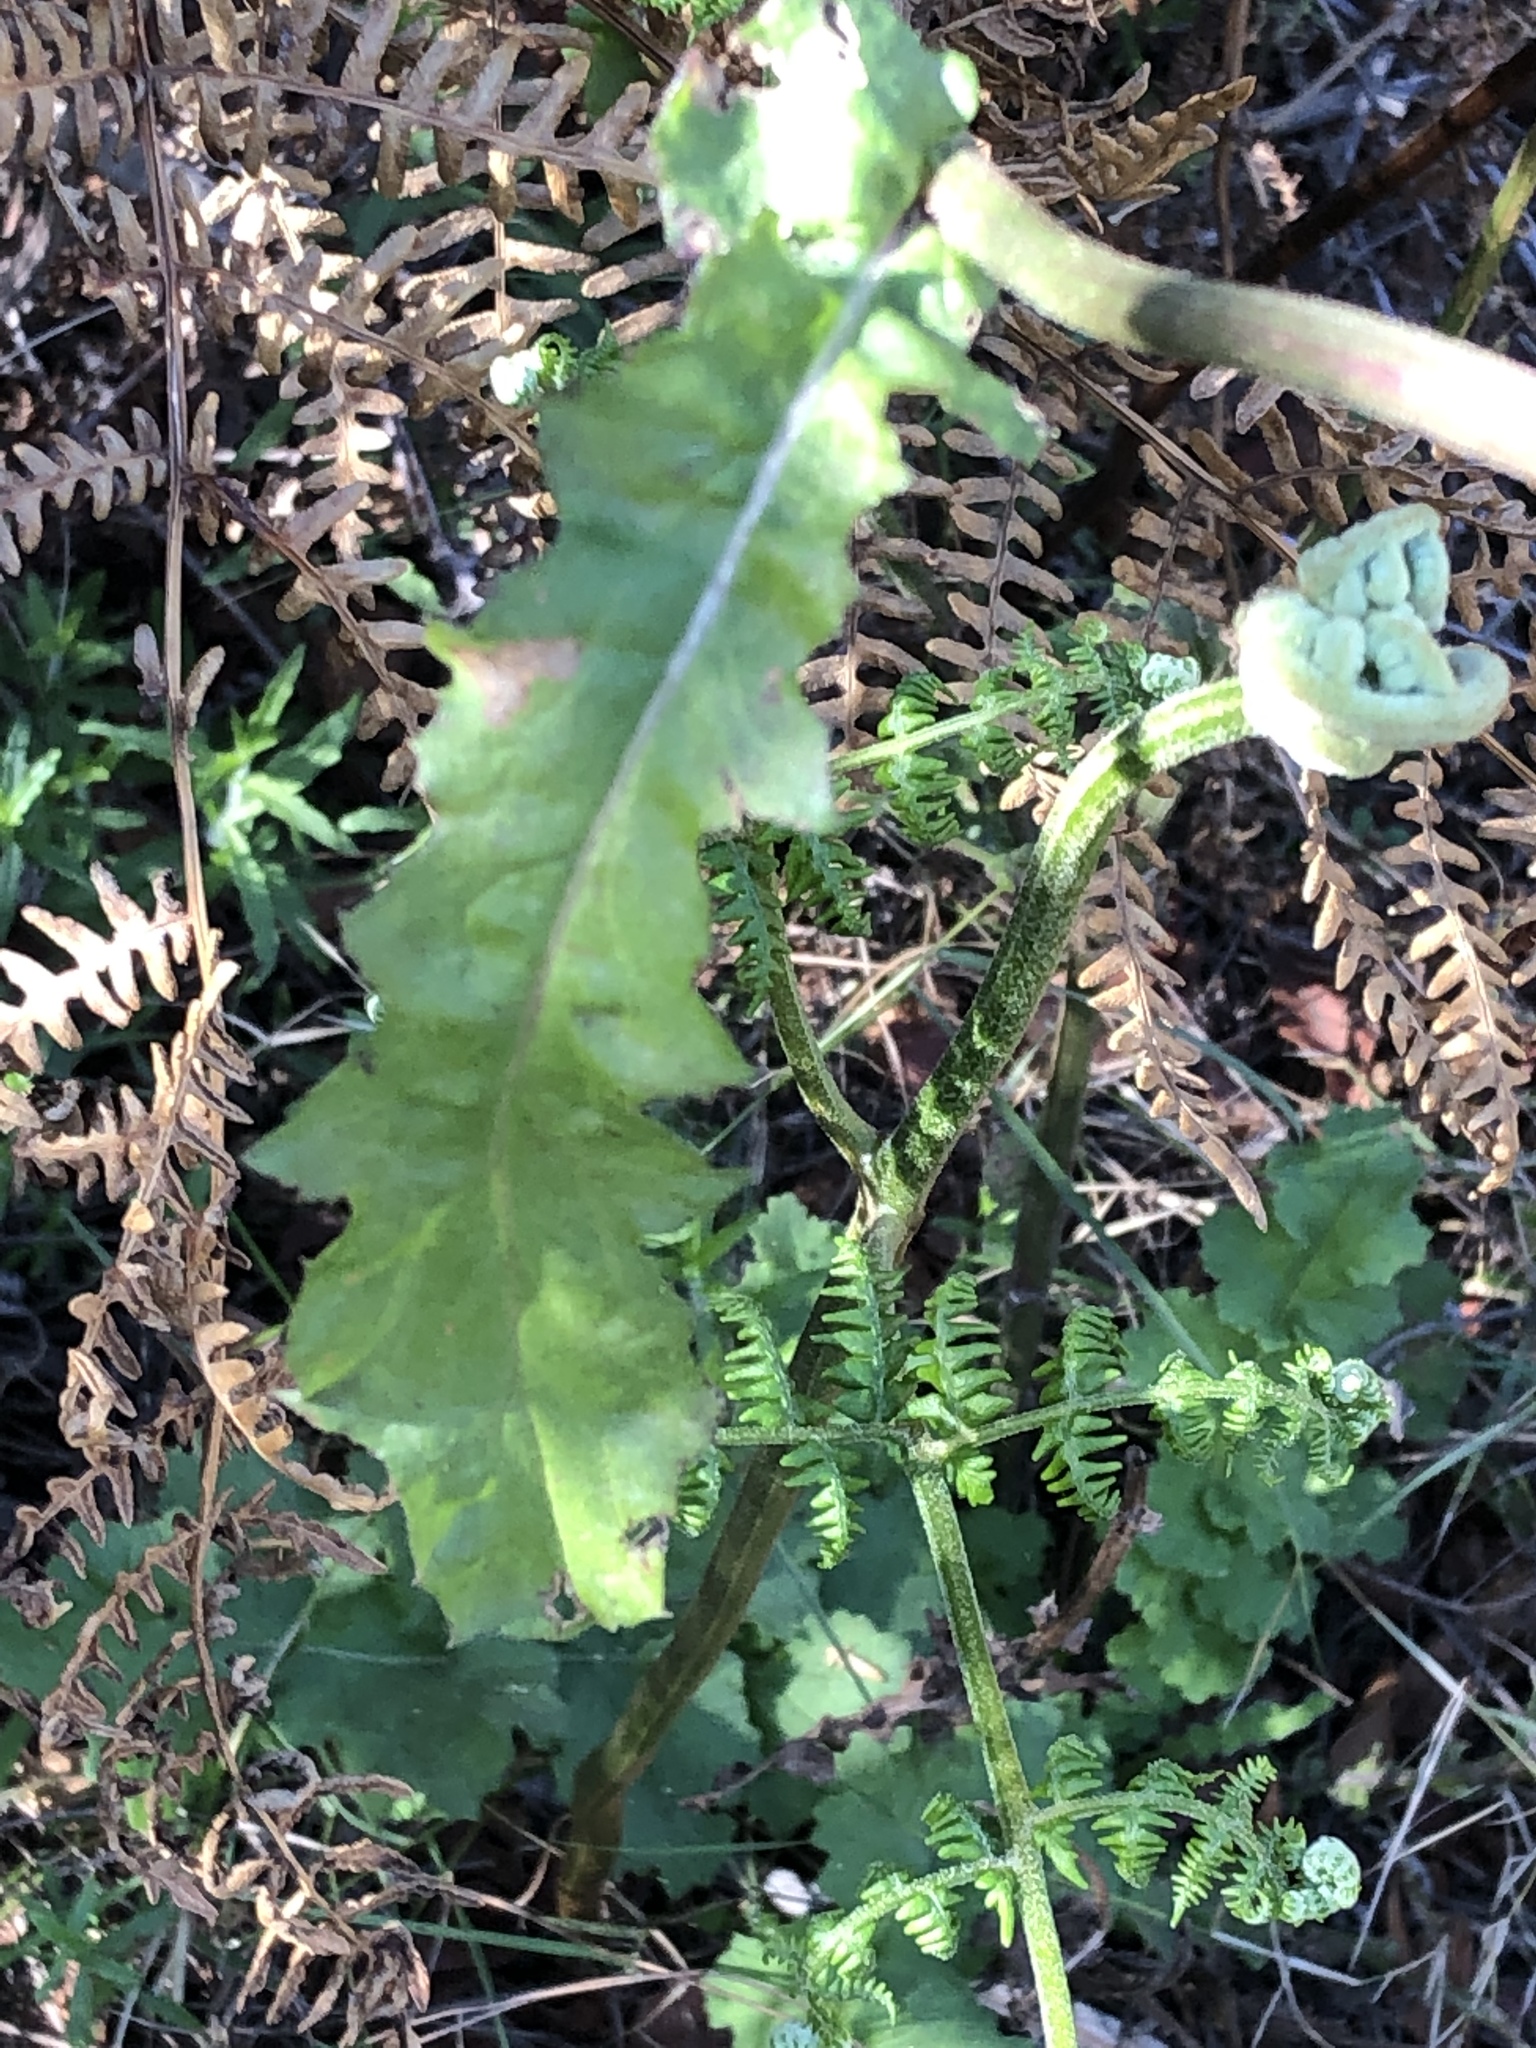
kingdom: Plantae
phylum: Tracheophyta
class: Magnoliopsida
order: Asterales
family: Asteraceae
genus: Senecio
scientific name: Senecio purpureus
